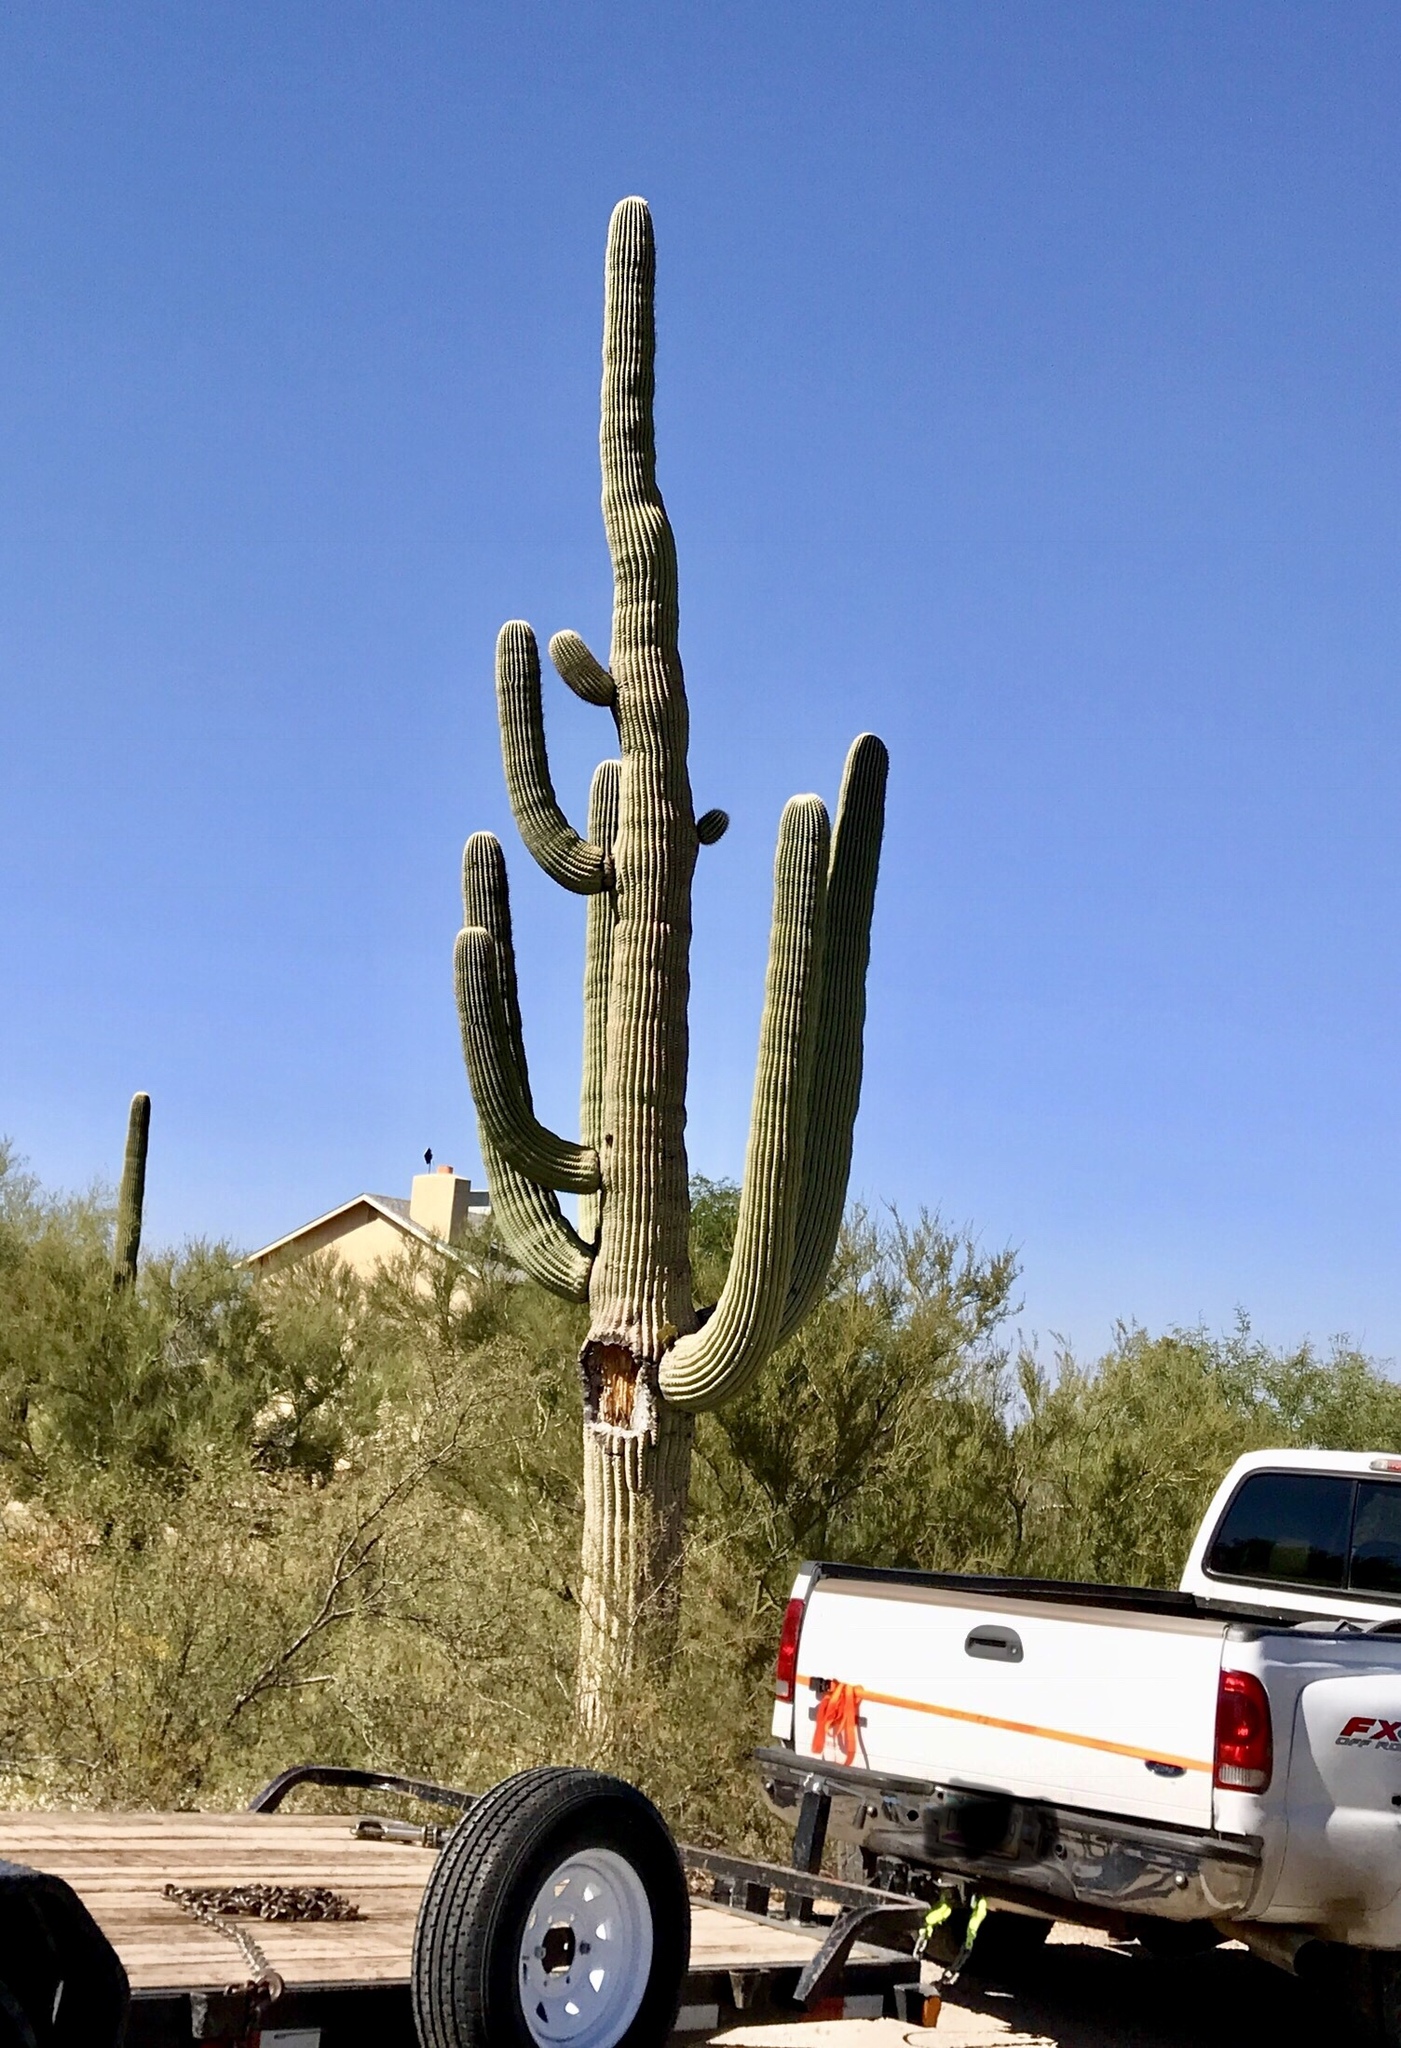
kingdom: Plantae
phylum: Tracheophyta
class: Magnoliopsida
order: Caryophyllales
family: Cactaceae
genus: Carnegiea
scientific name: Carnegiea gigantea
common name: Saguaro
